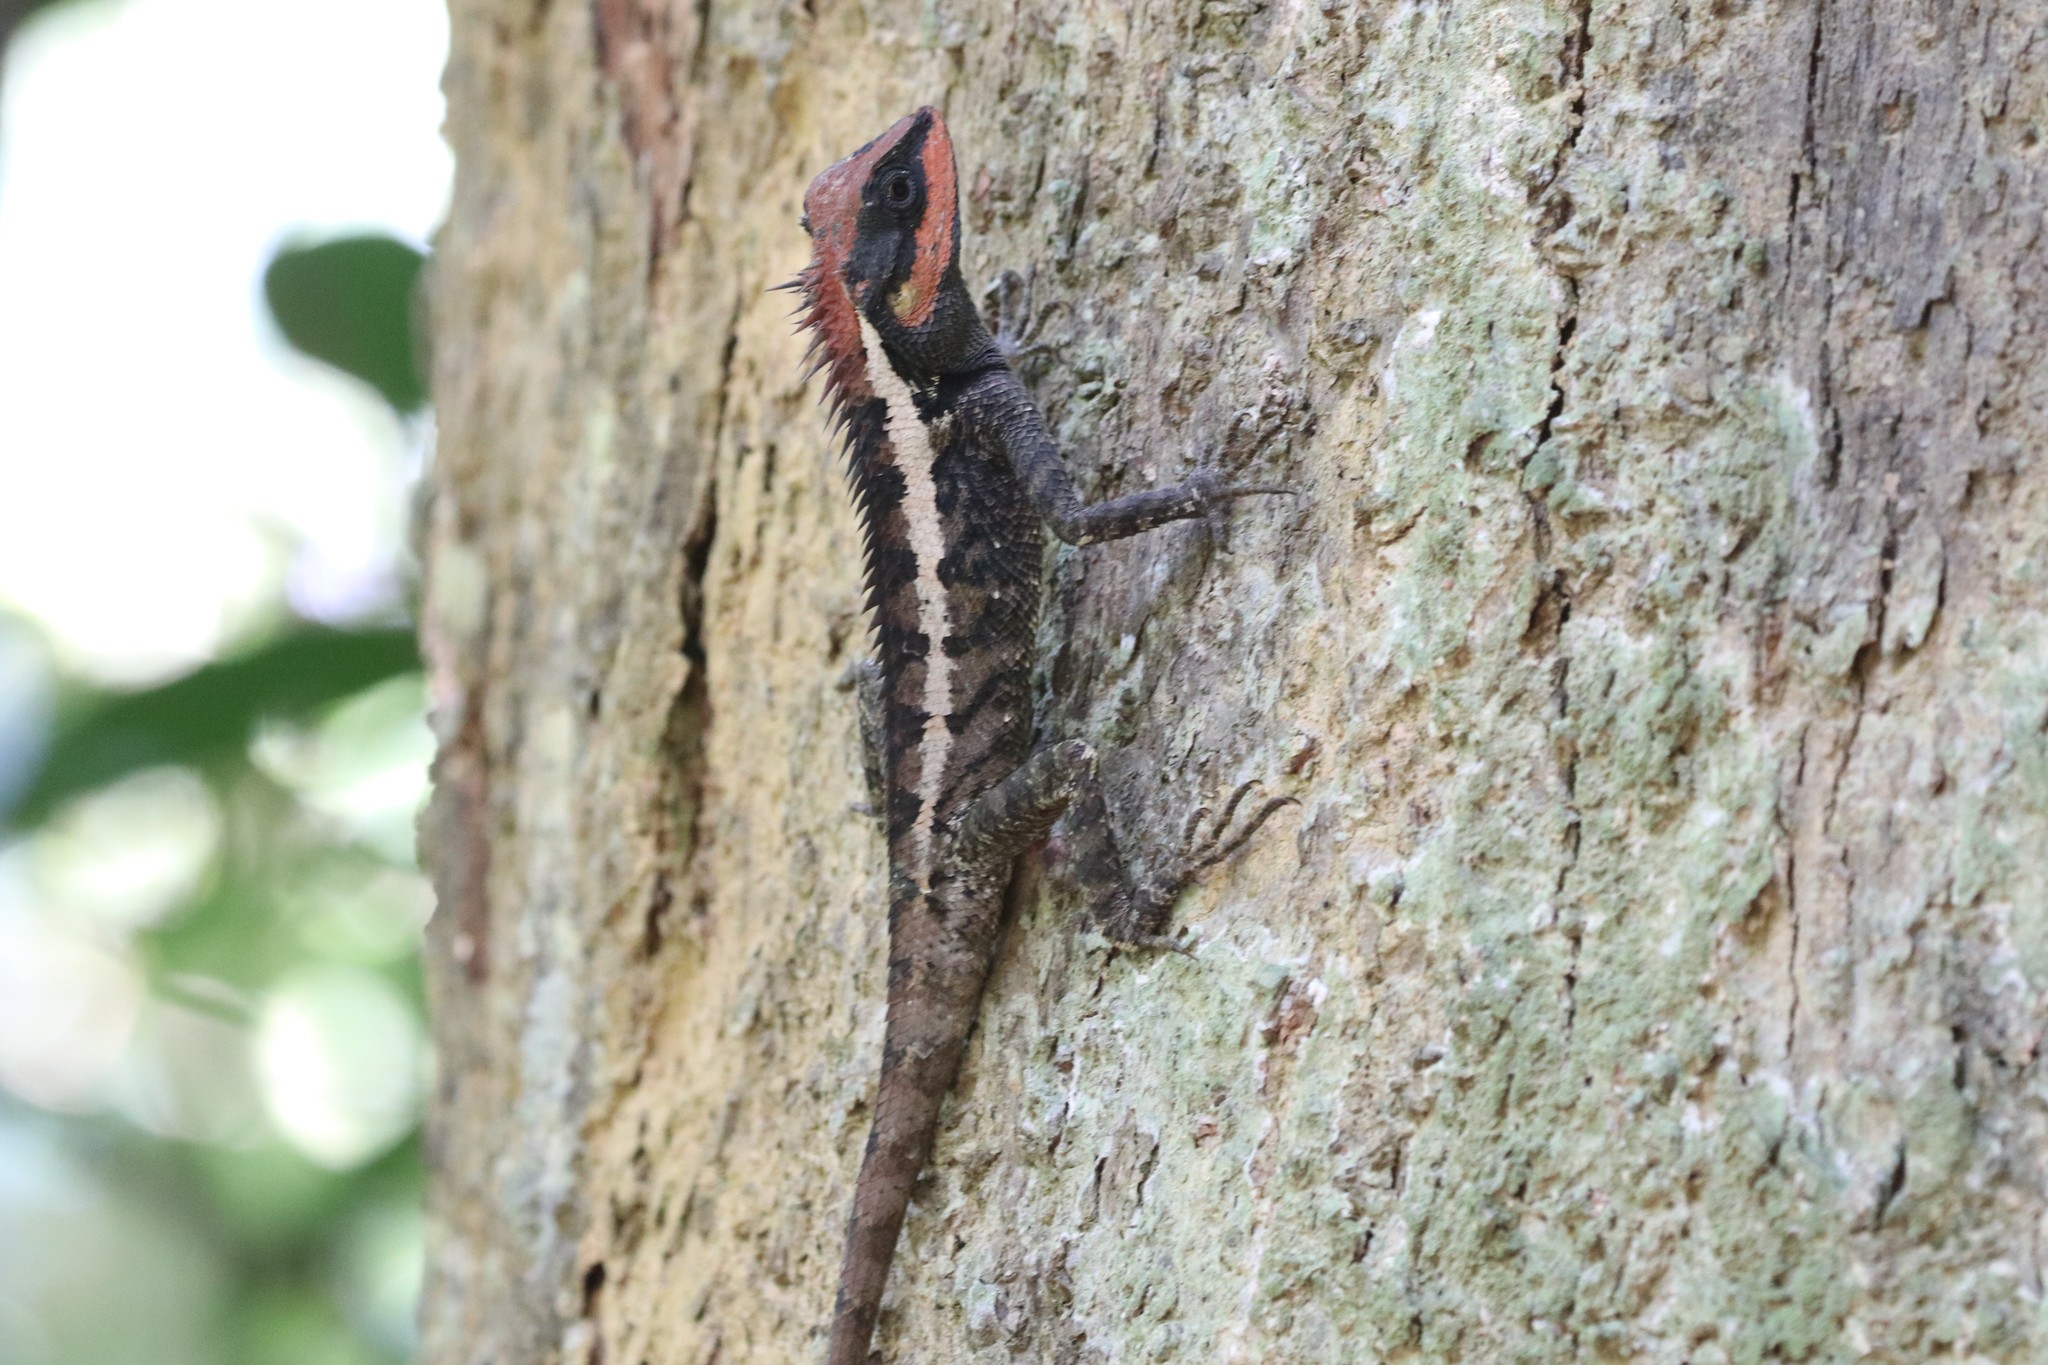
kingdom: Animalia
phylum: Chordata
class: Squamata
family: Agamidae
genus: Calotes
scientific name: Calotes emma
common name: Thailand bloodsucker
